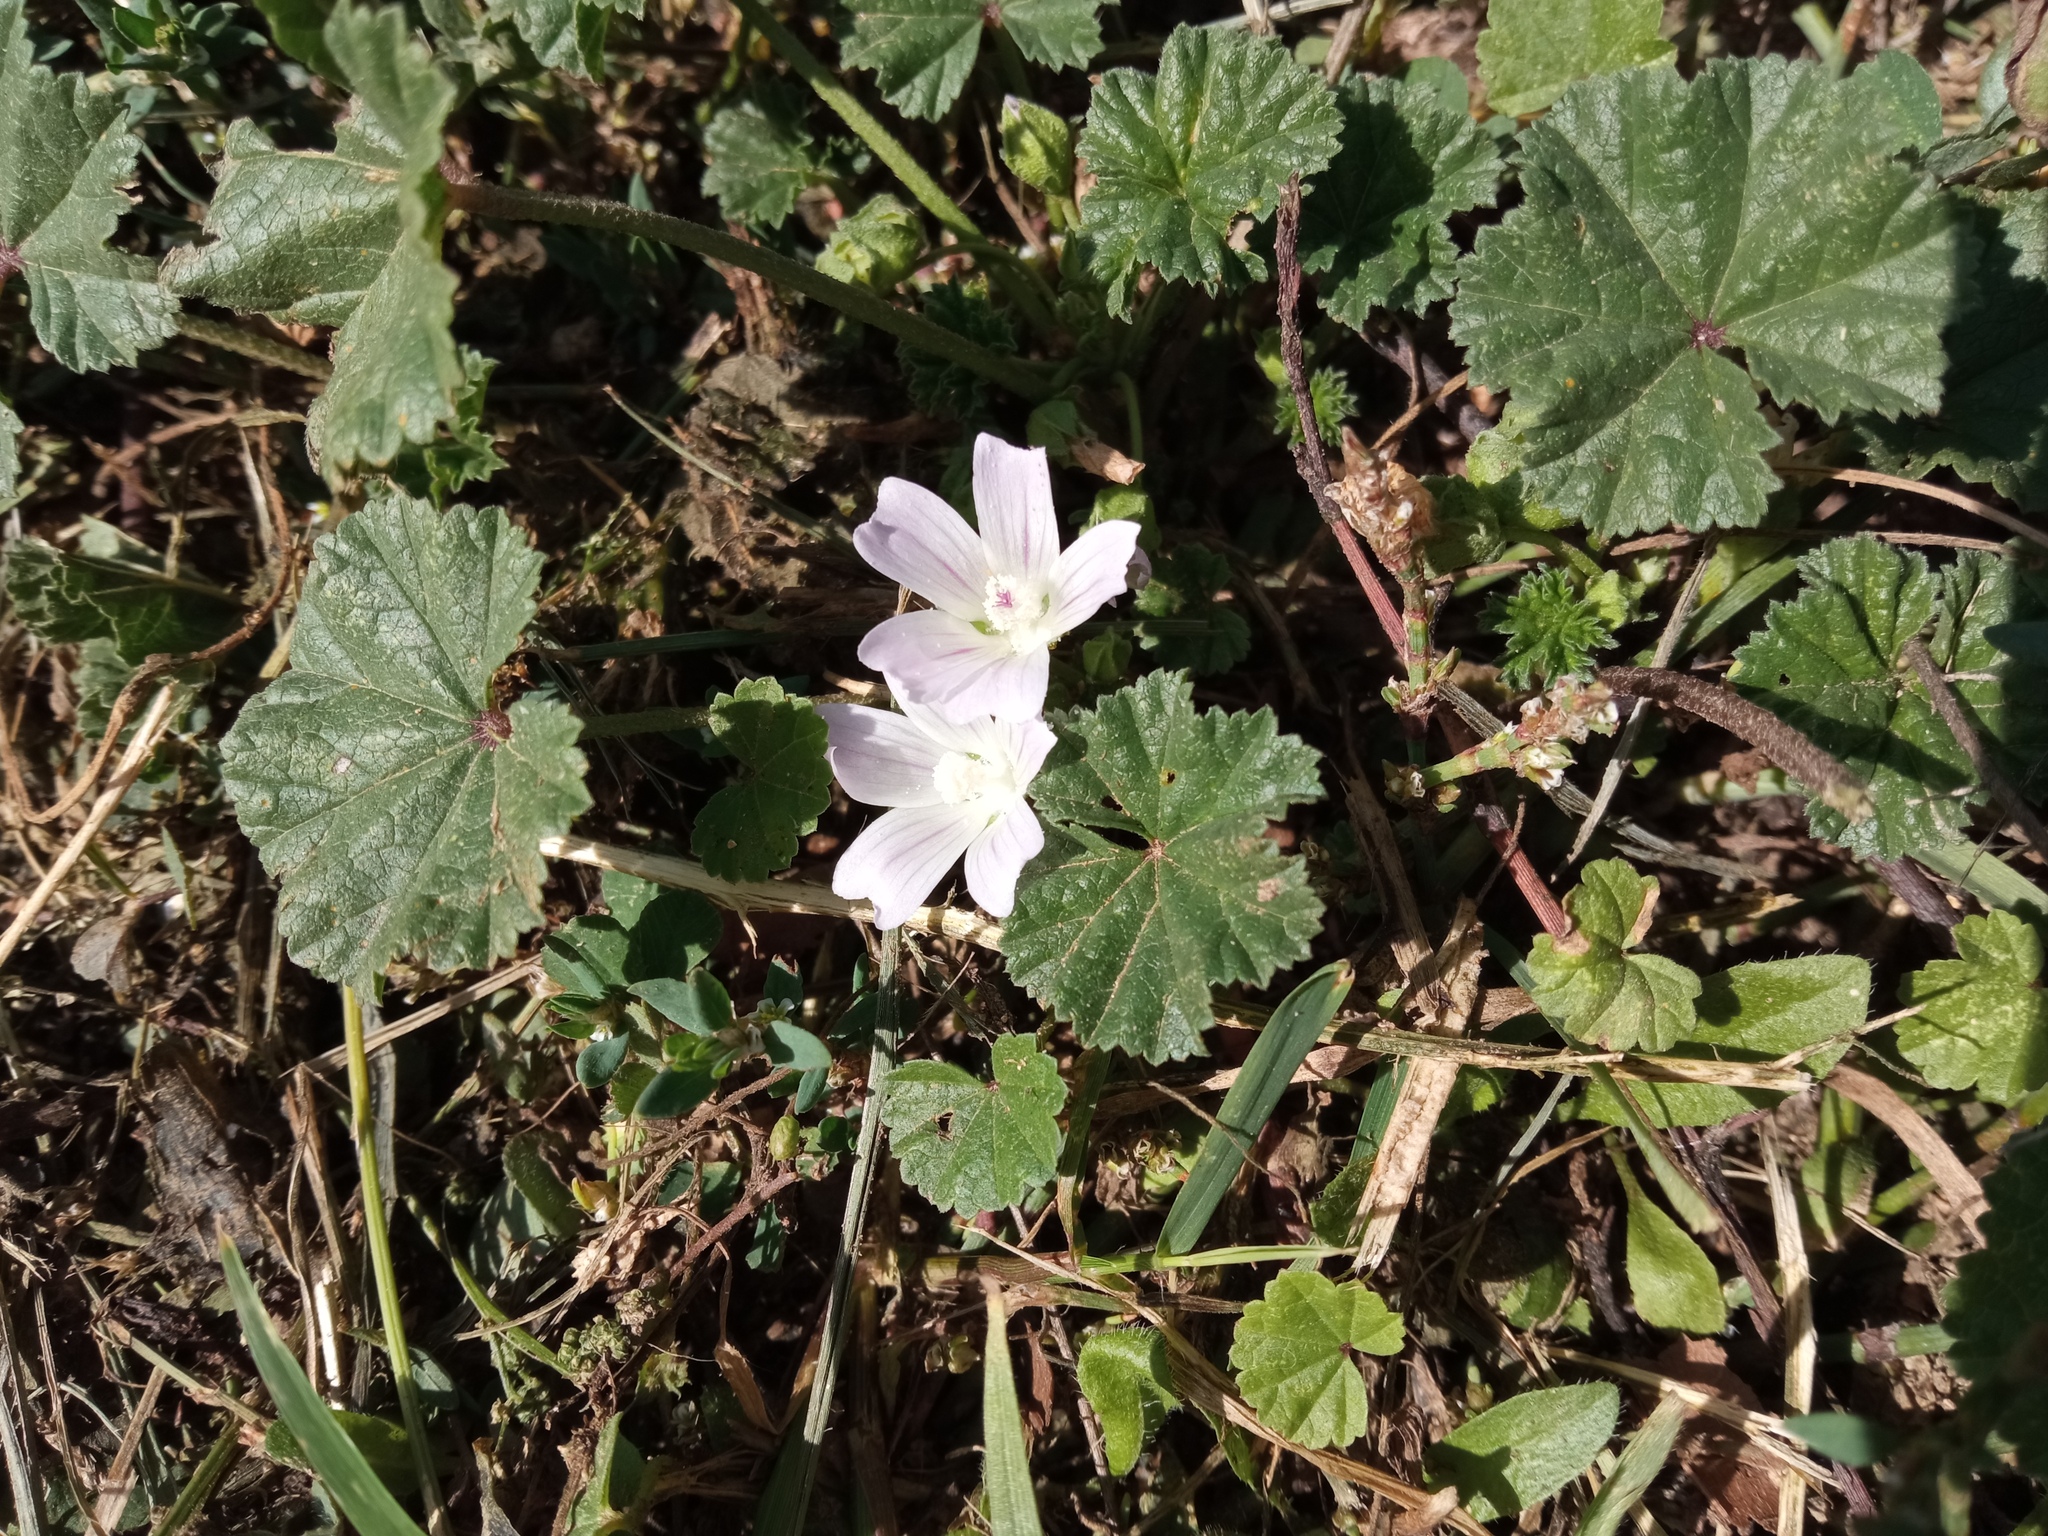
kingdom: Plantae
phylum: Tracheophyta
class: Magnoliopsida
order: Malvales
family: Malvaceae
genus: Malva
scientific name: Malva neglecta
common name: Common mallow
